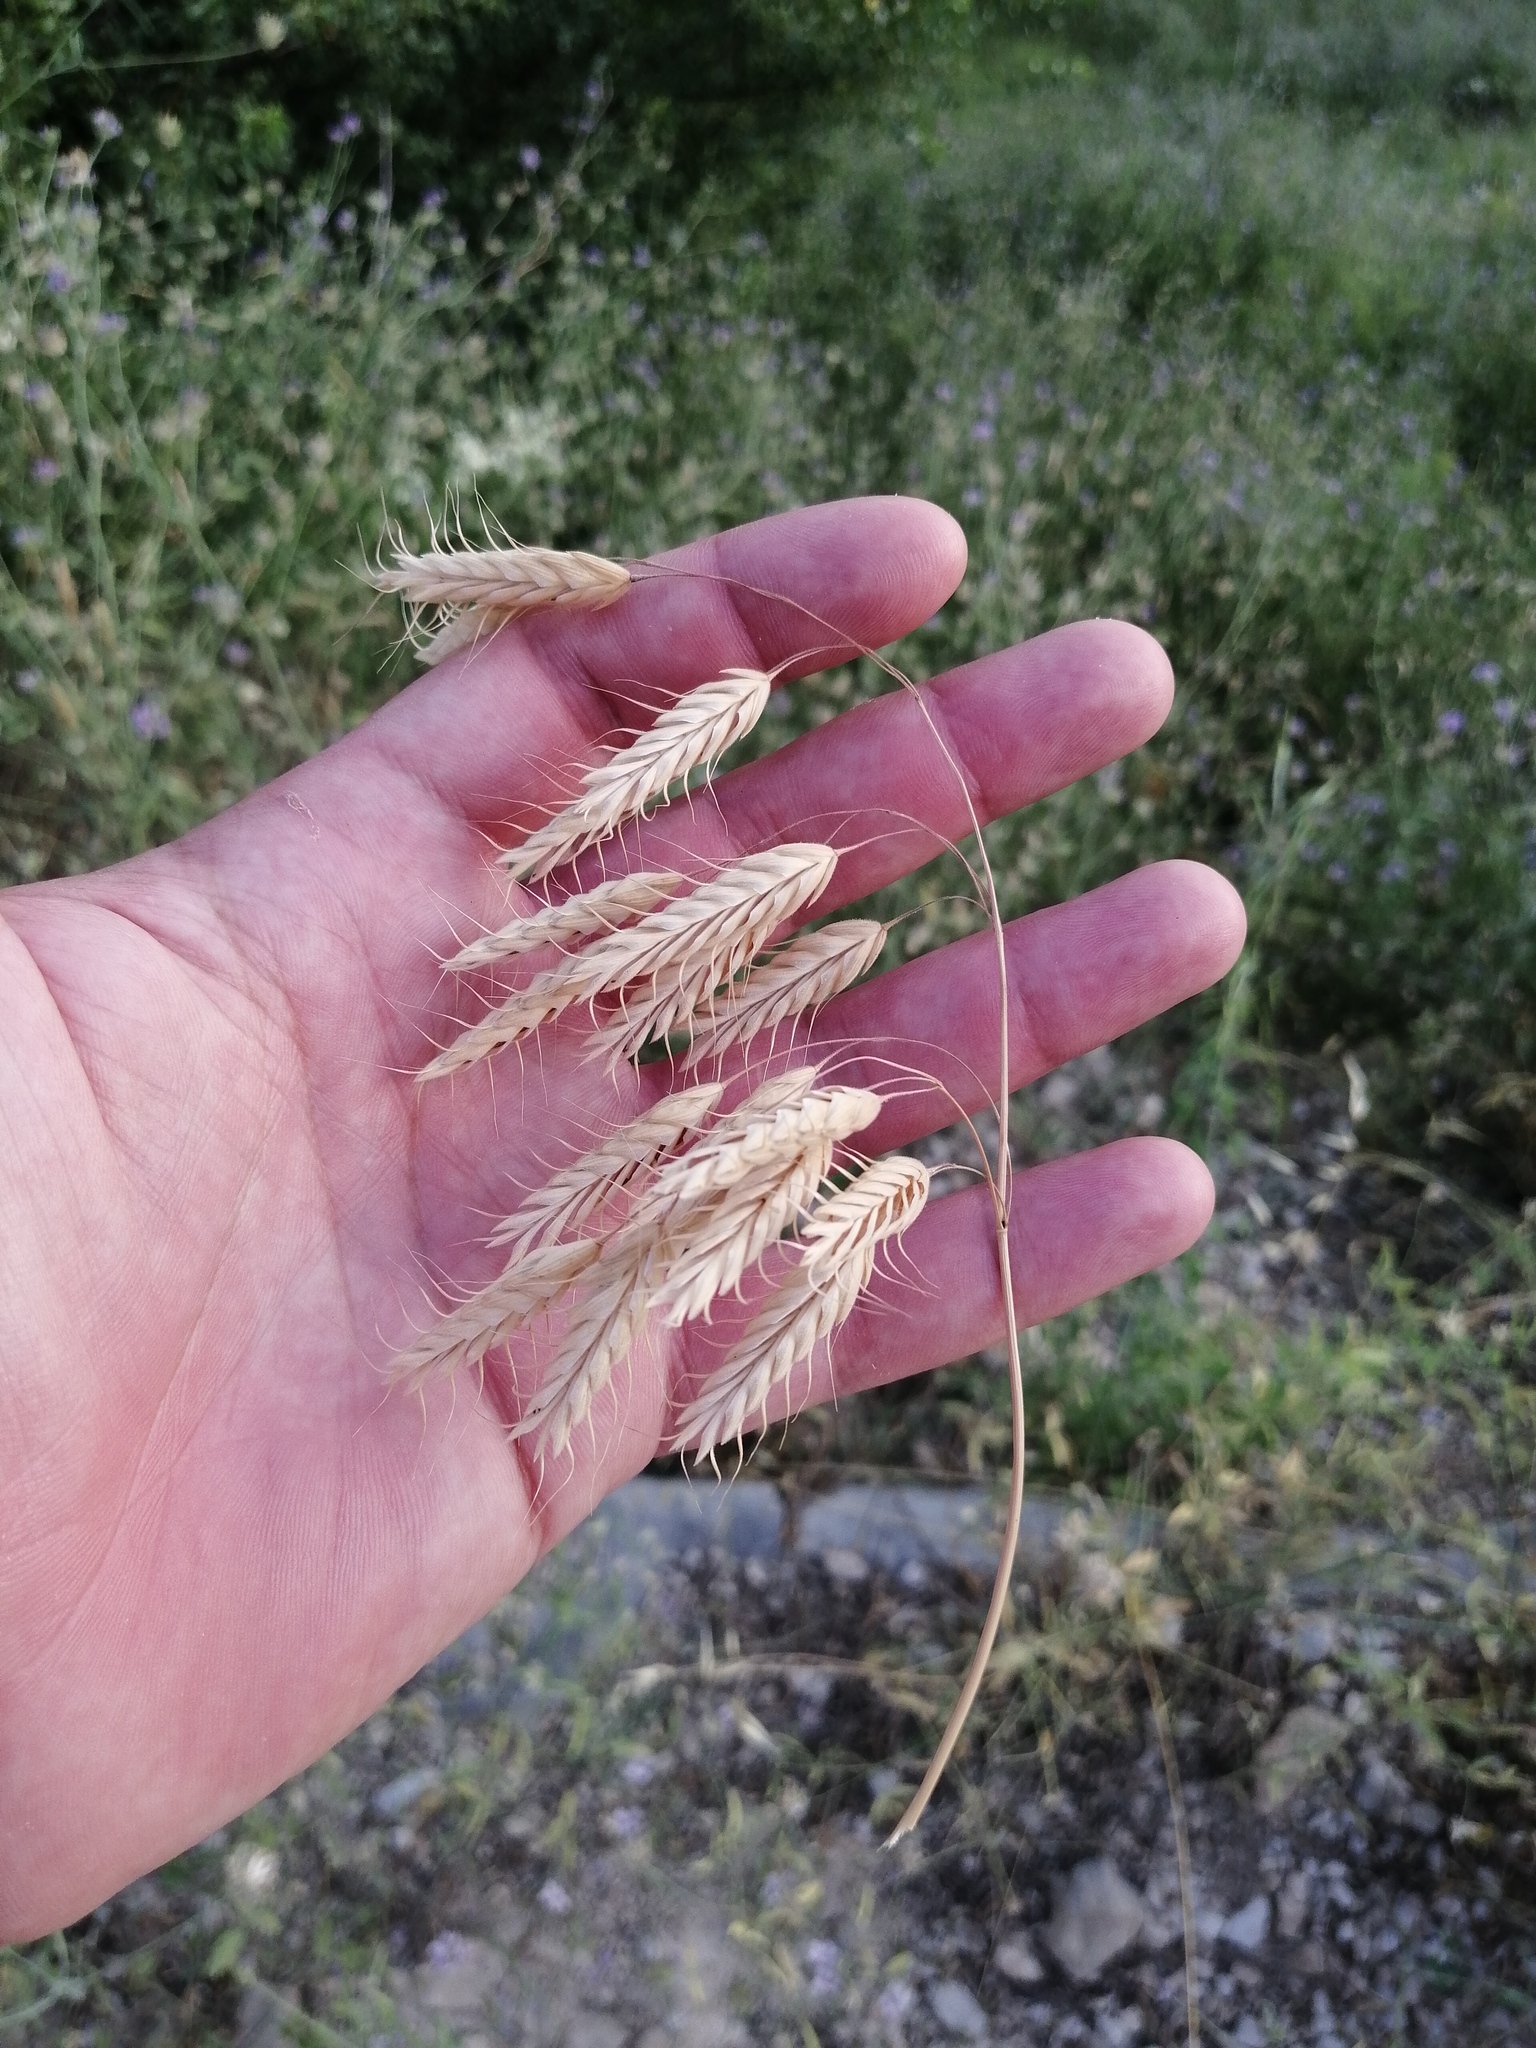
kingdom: Plantae
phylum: Tracheophyta
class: Liliopsida
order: Poales
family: Poaceae
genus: Bromus
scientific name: Bromus squarrosus
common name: Corn brome
